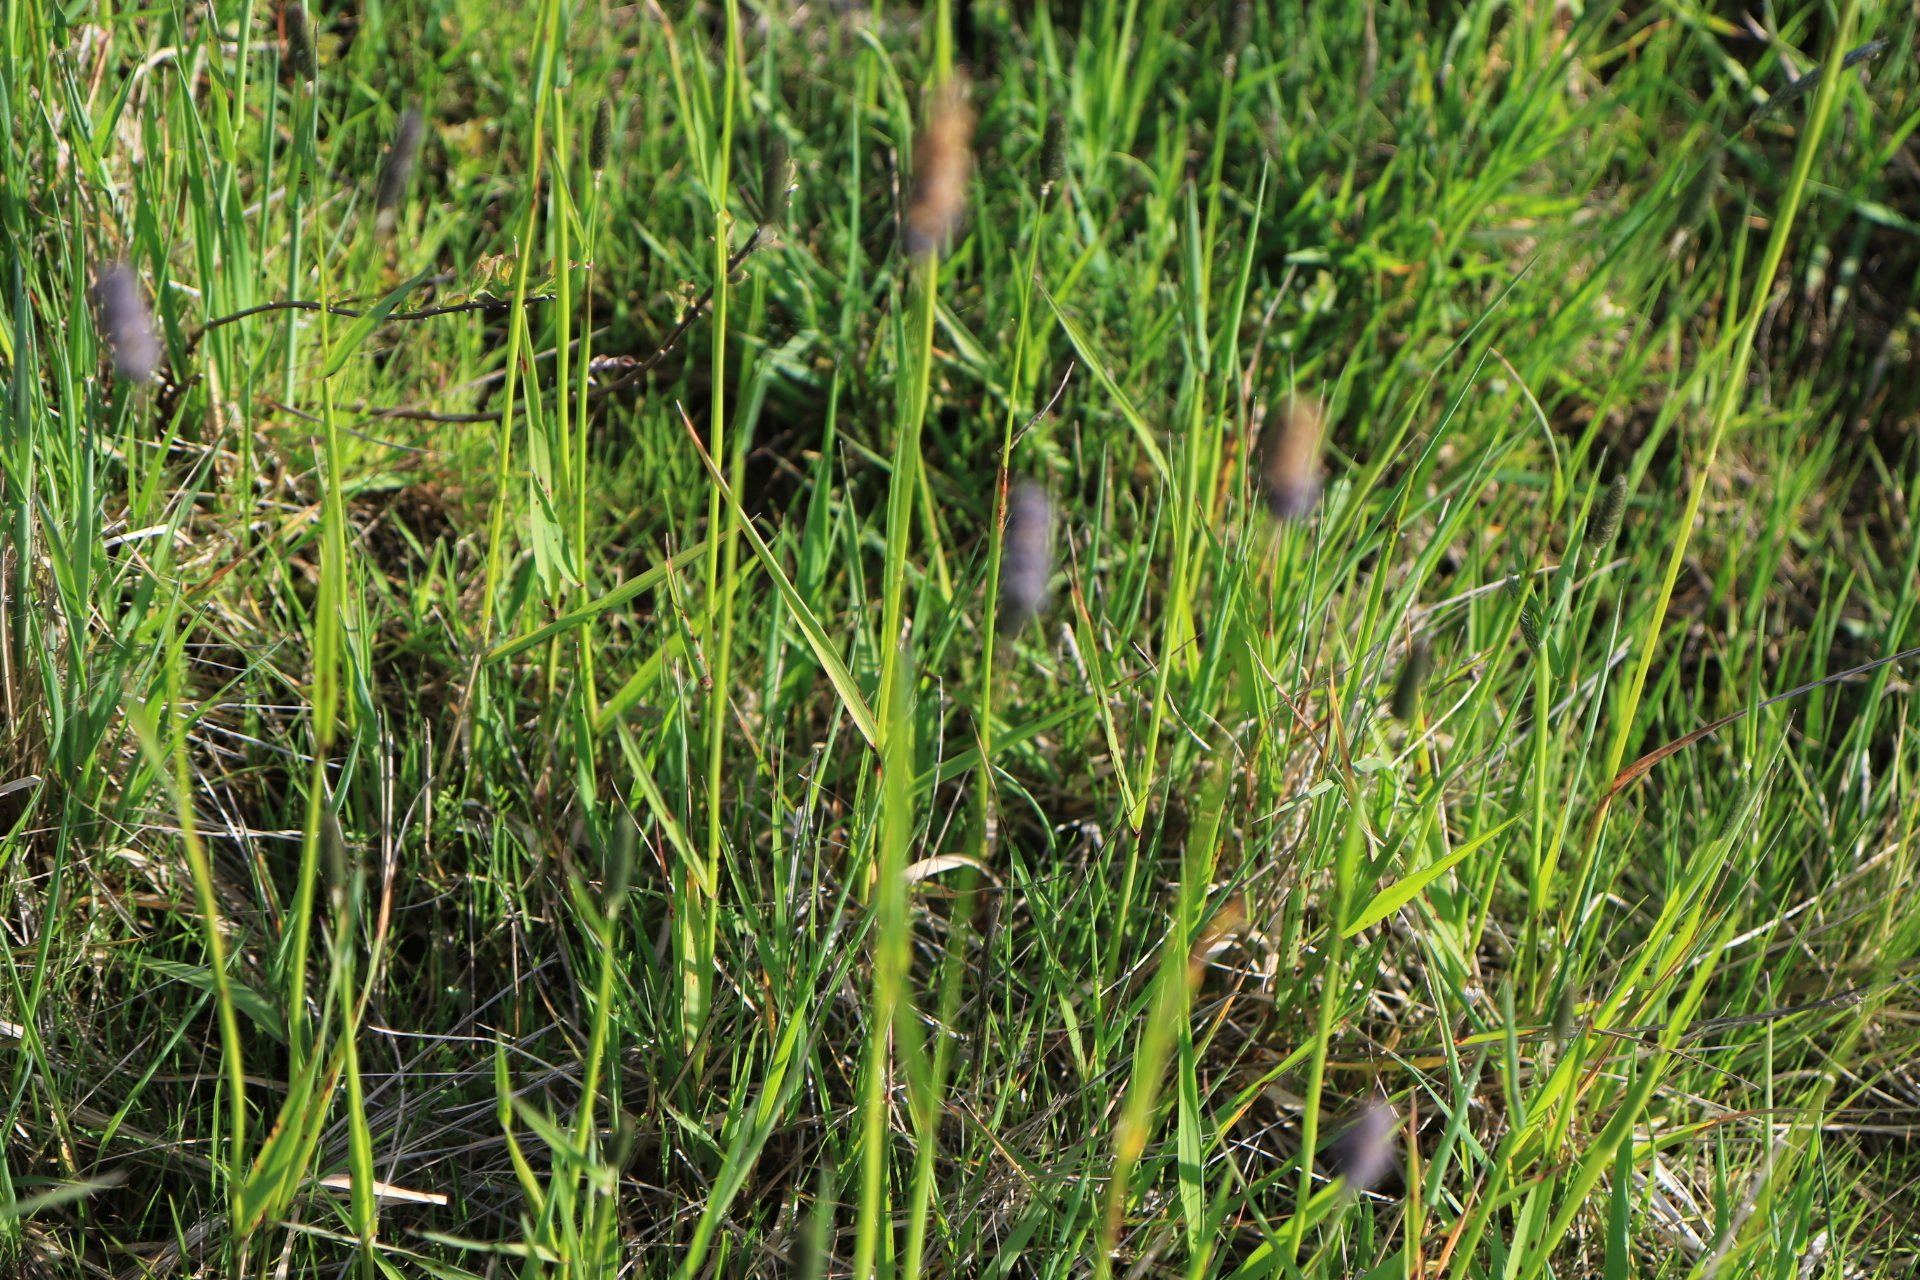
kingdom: Plantae
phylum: Tracheophyta
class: Liliopsida
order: Poales
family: Poaceae
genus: Alopecurus
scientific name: Alopecurus pratensis
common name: Meadow foxtail
